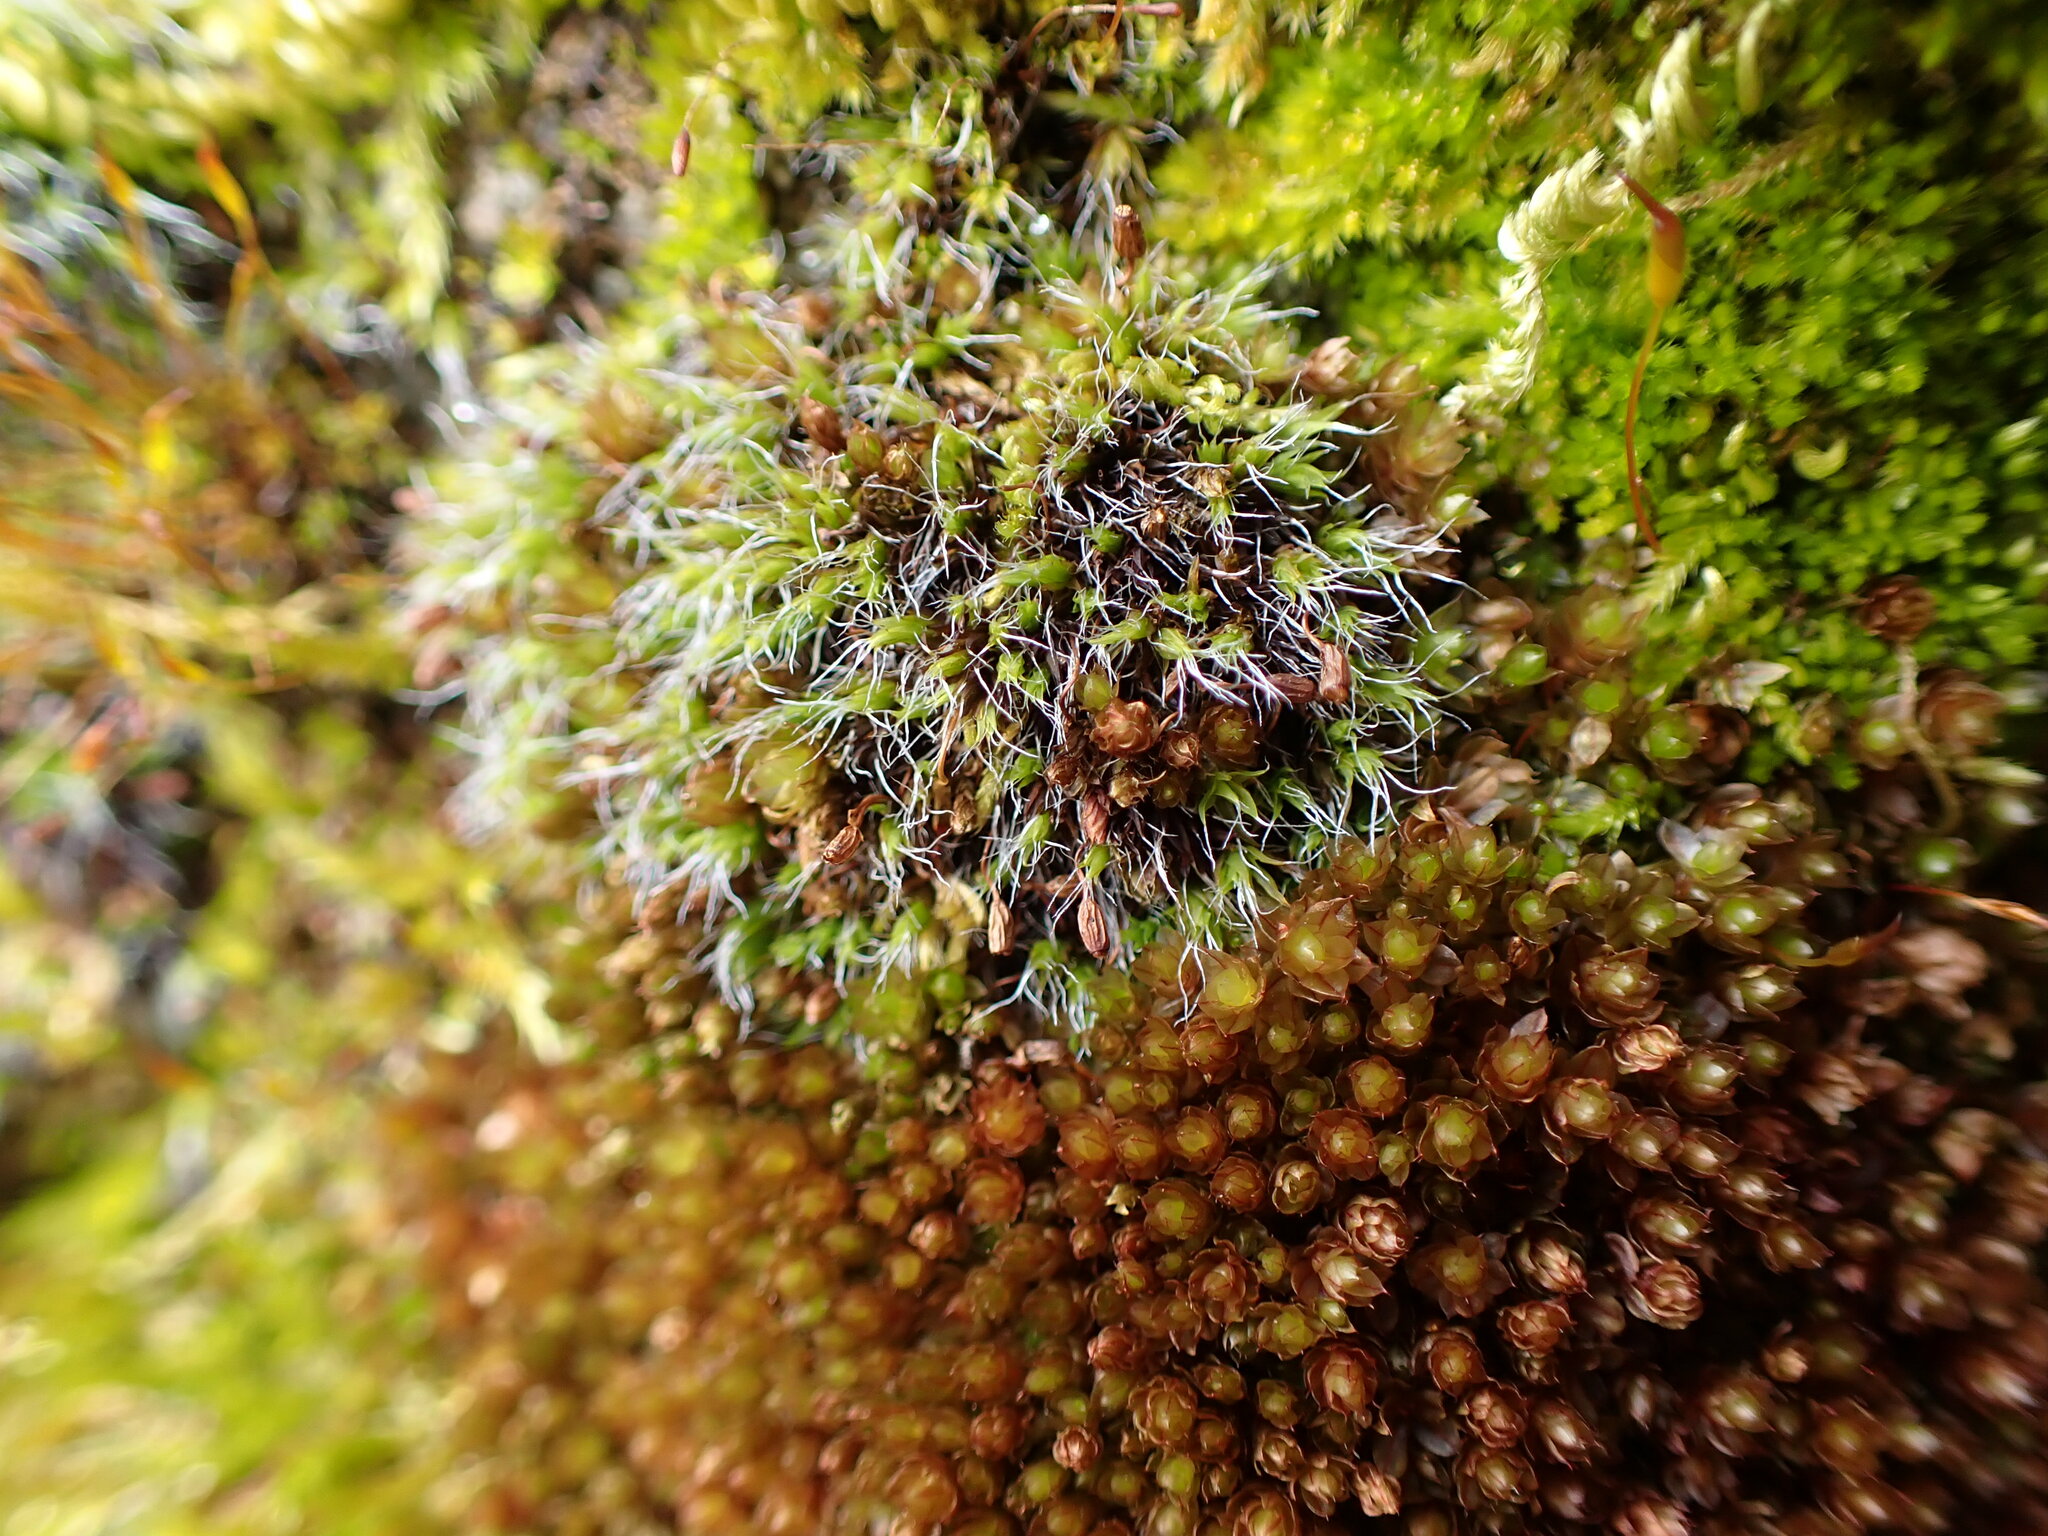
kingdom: Plantae
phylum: Bryophyta
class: Bryopsida
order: Grimmiales
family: Grimmiaceae
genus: Grimmia
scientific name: Grimmia pulvinata
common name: Grey-cushioned grimmia
